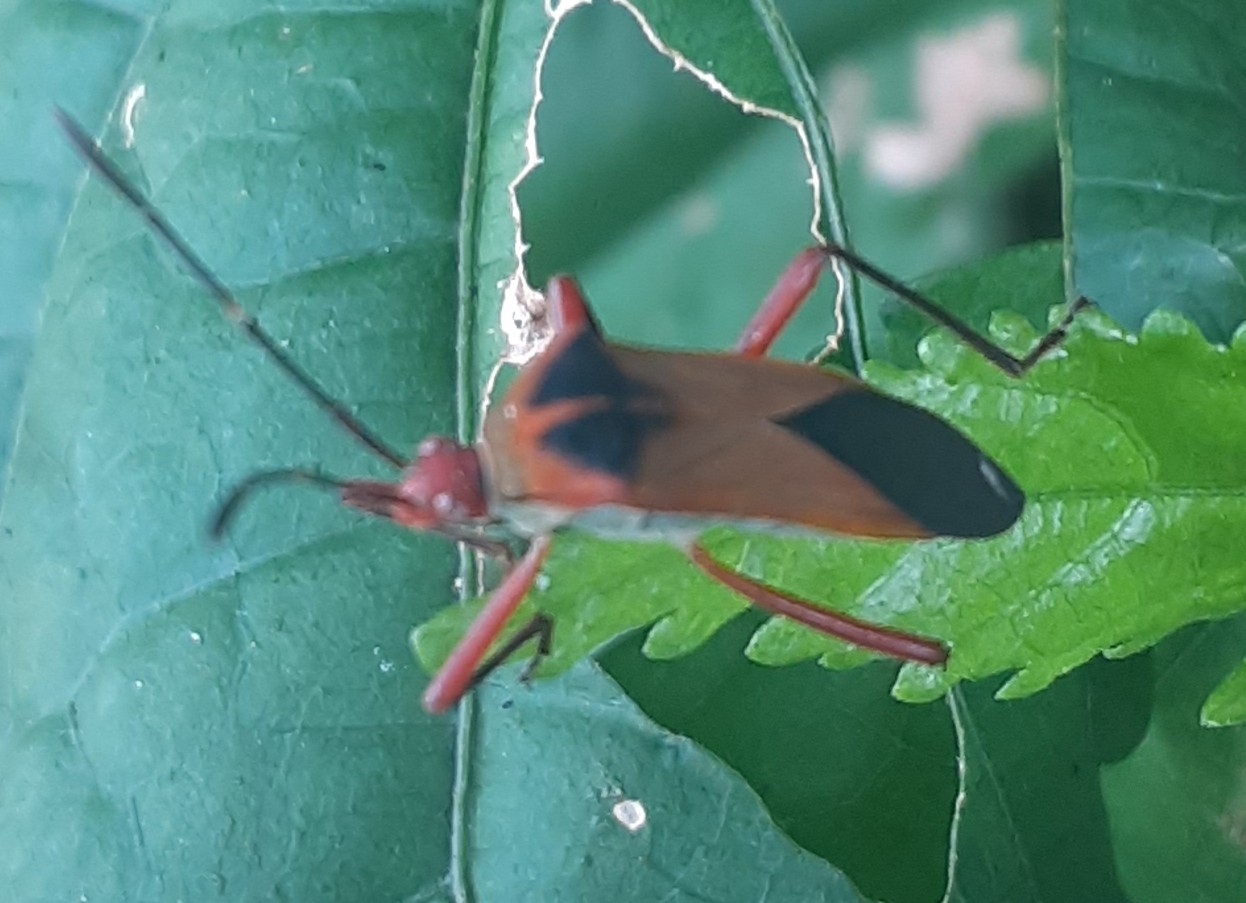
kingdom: Animalia
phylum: Arthropoda
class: Insecta
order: Hemiptera
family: Coreidae
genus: Hypselonotus
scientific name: Hypselonotus bitrianguliger
